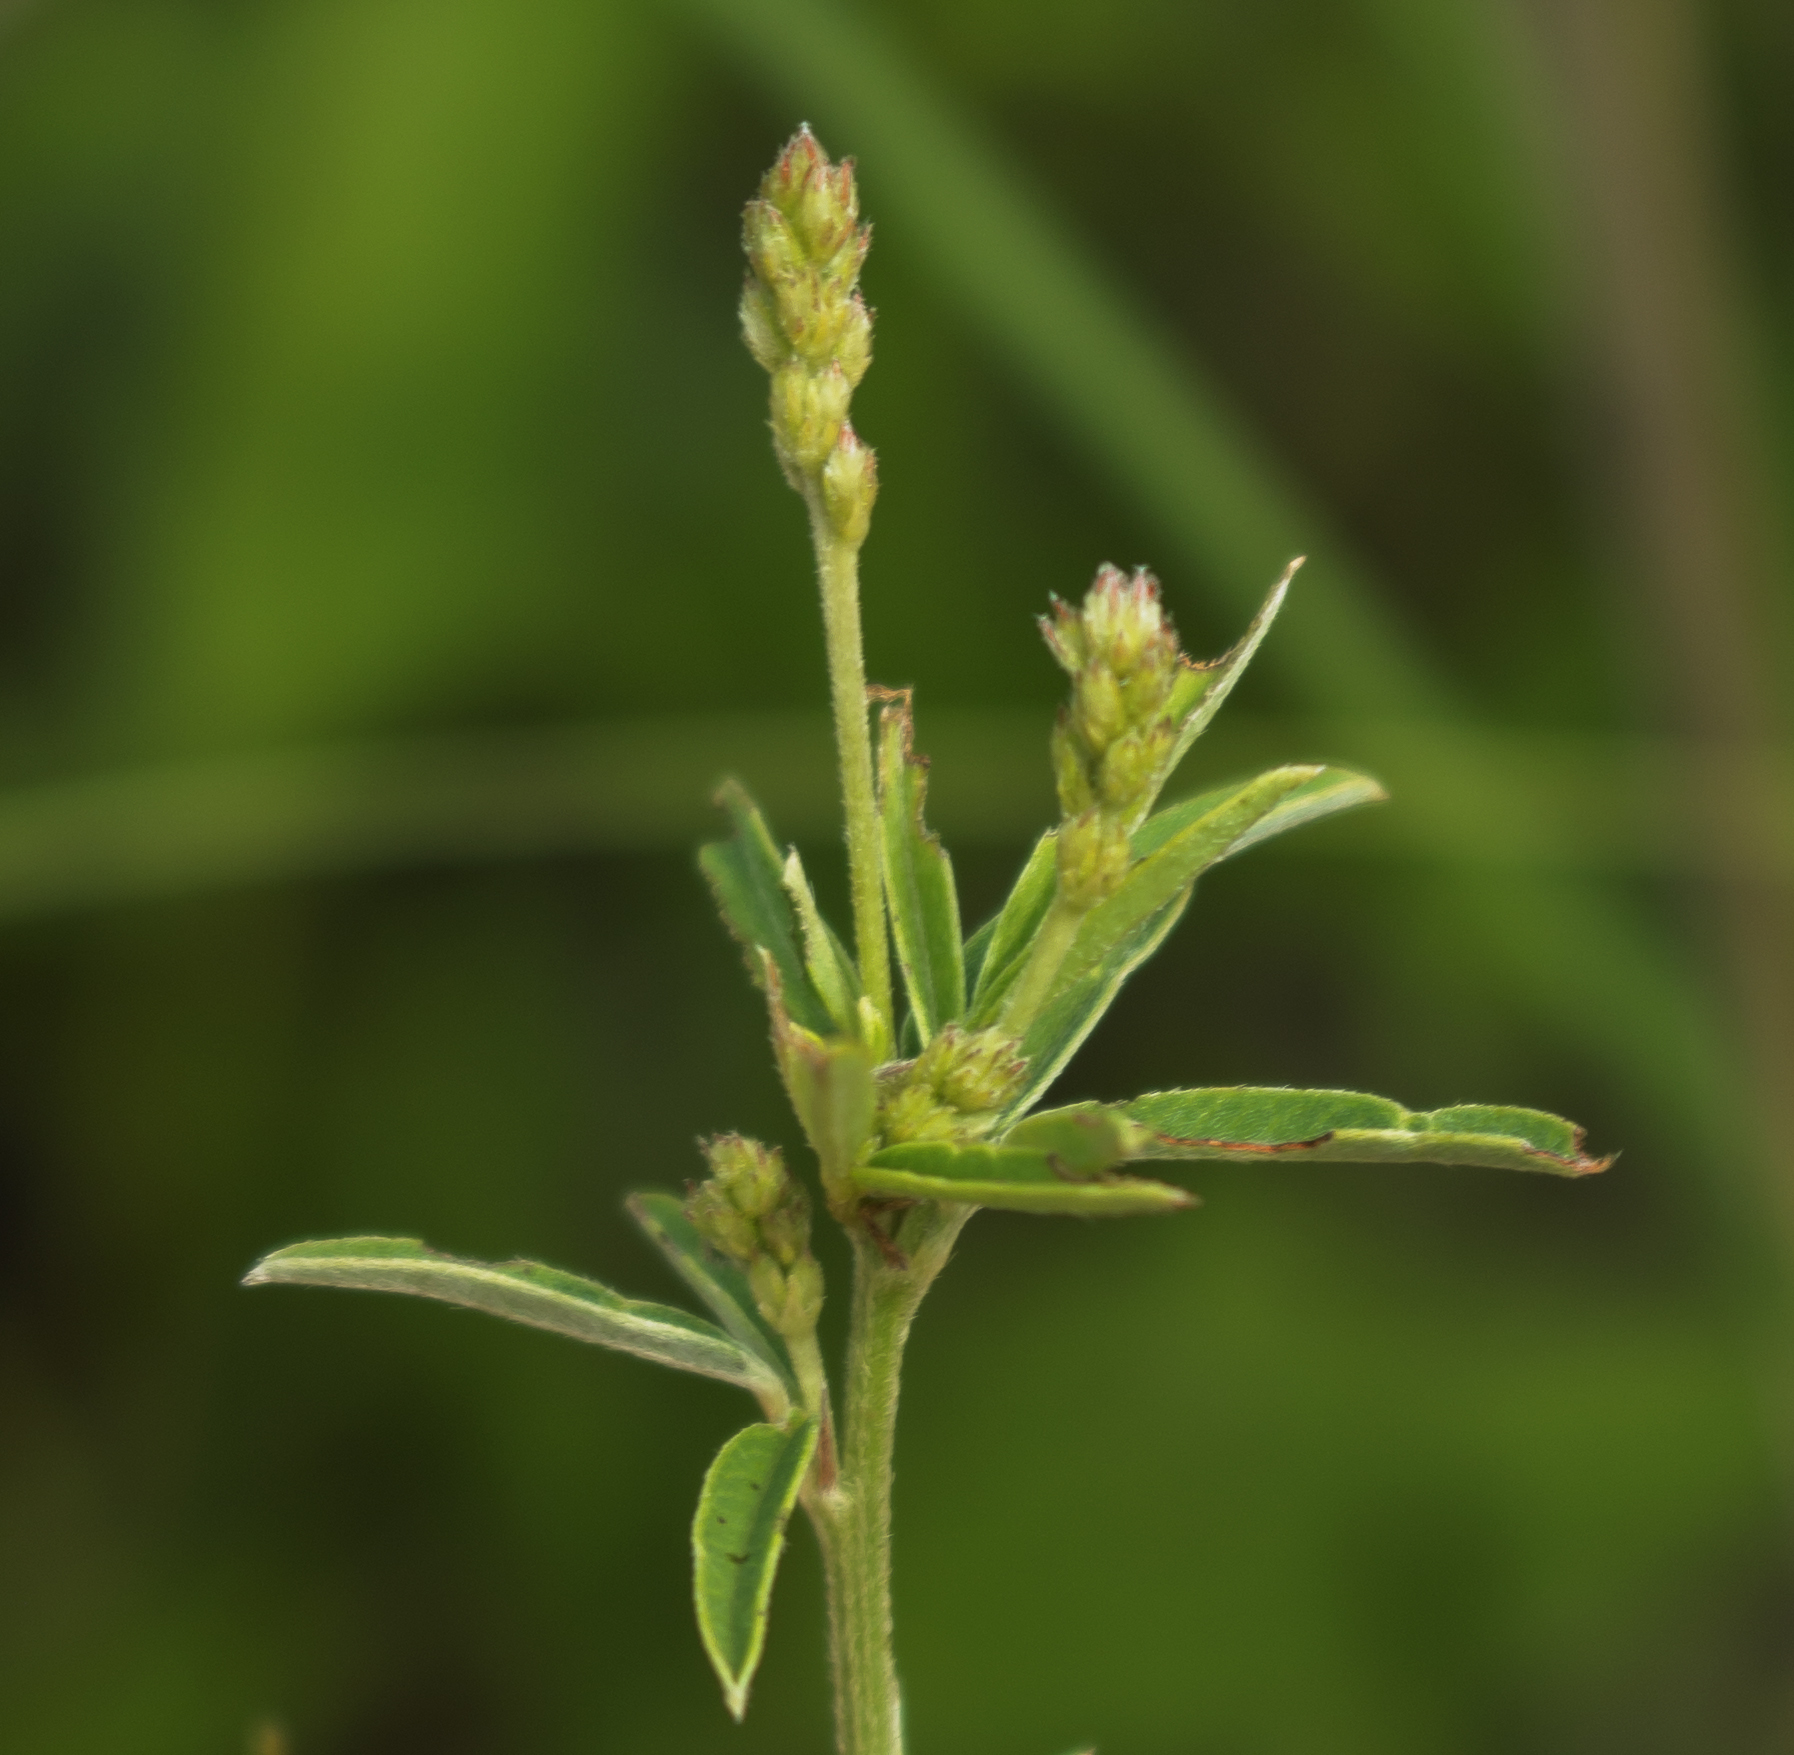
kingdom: Plantae
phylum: Tracheophyta
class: Magnoliopsida
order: Fabales
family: Fabaceae
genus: Lespedeza
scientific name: Lespedeza leptostachya
